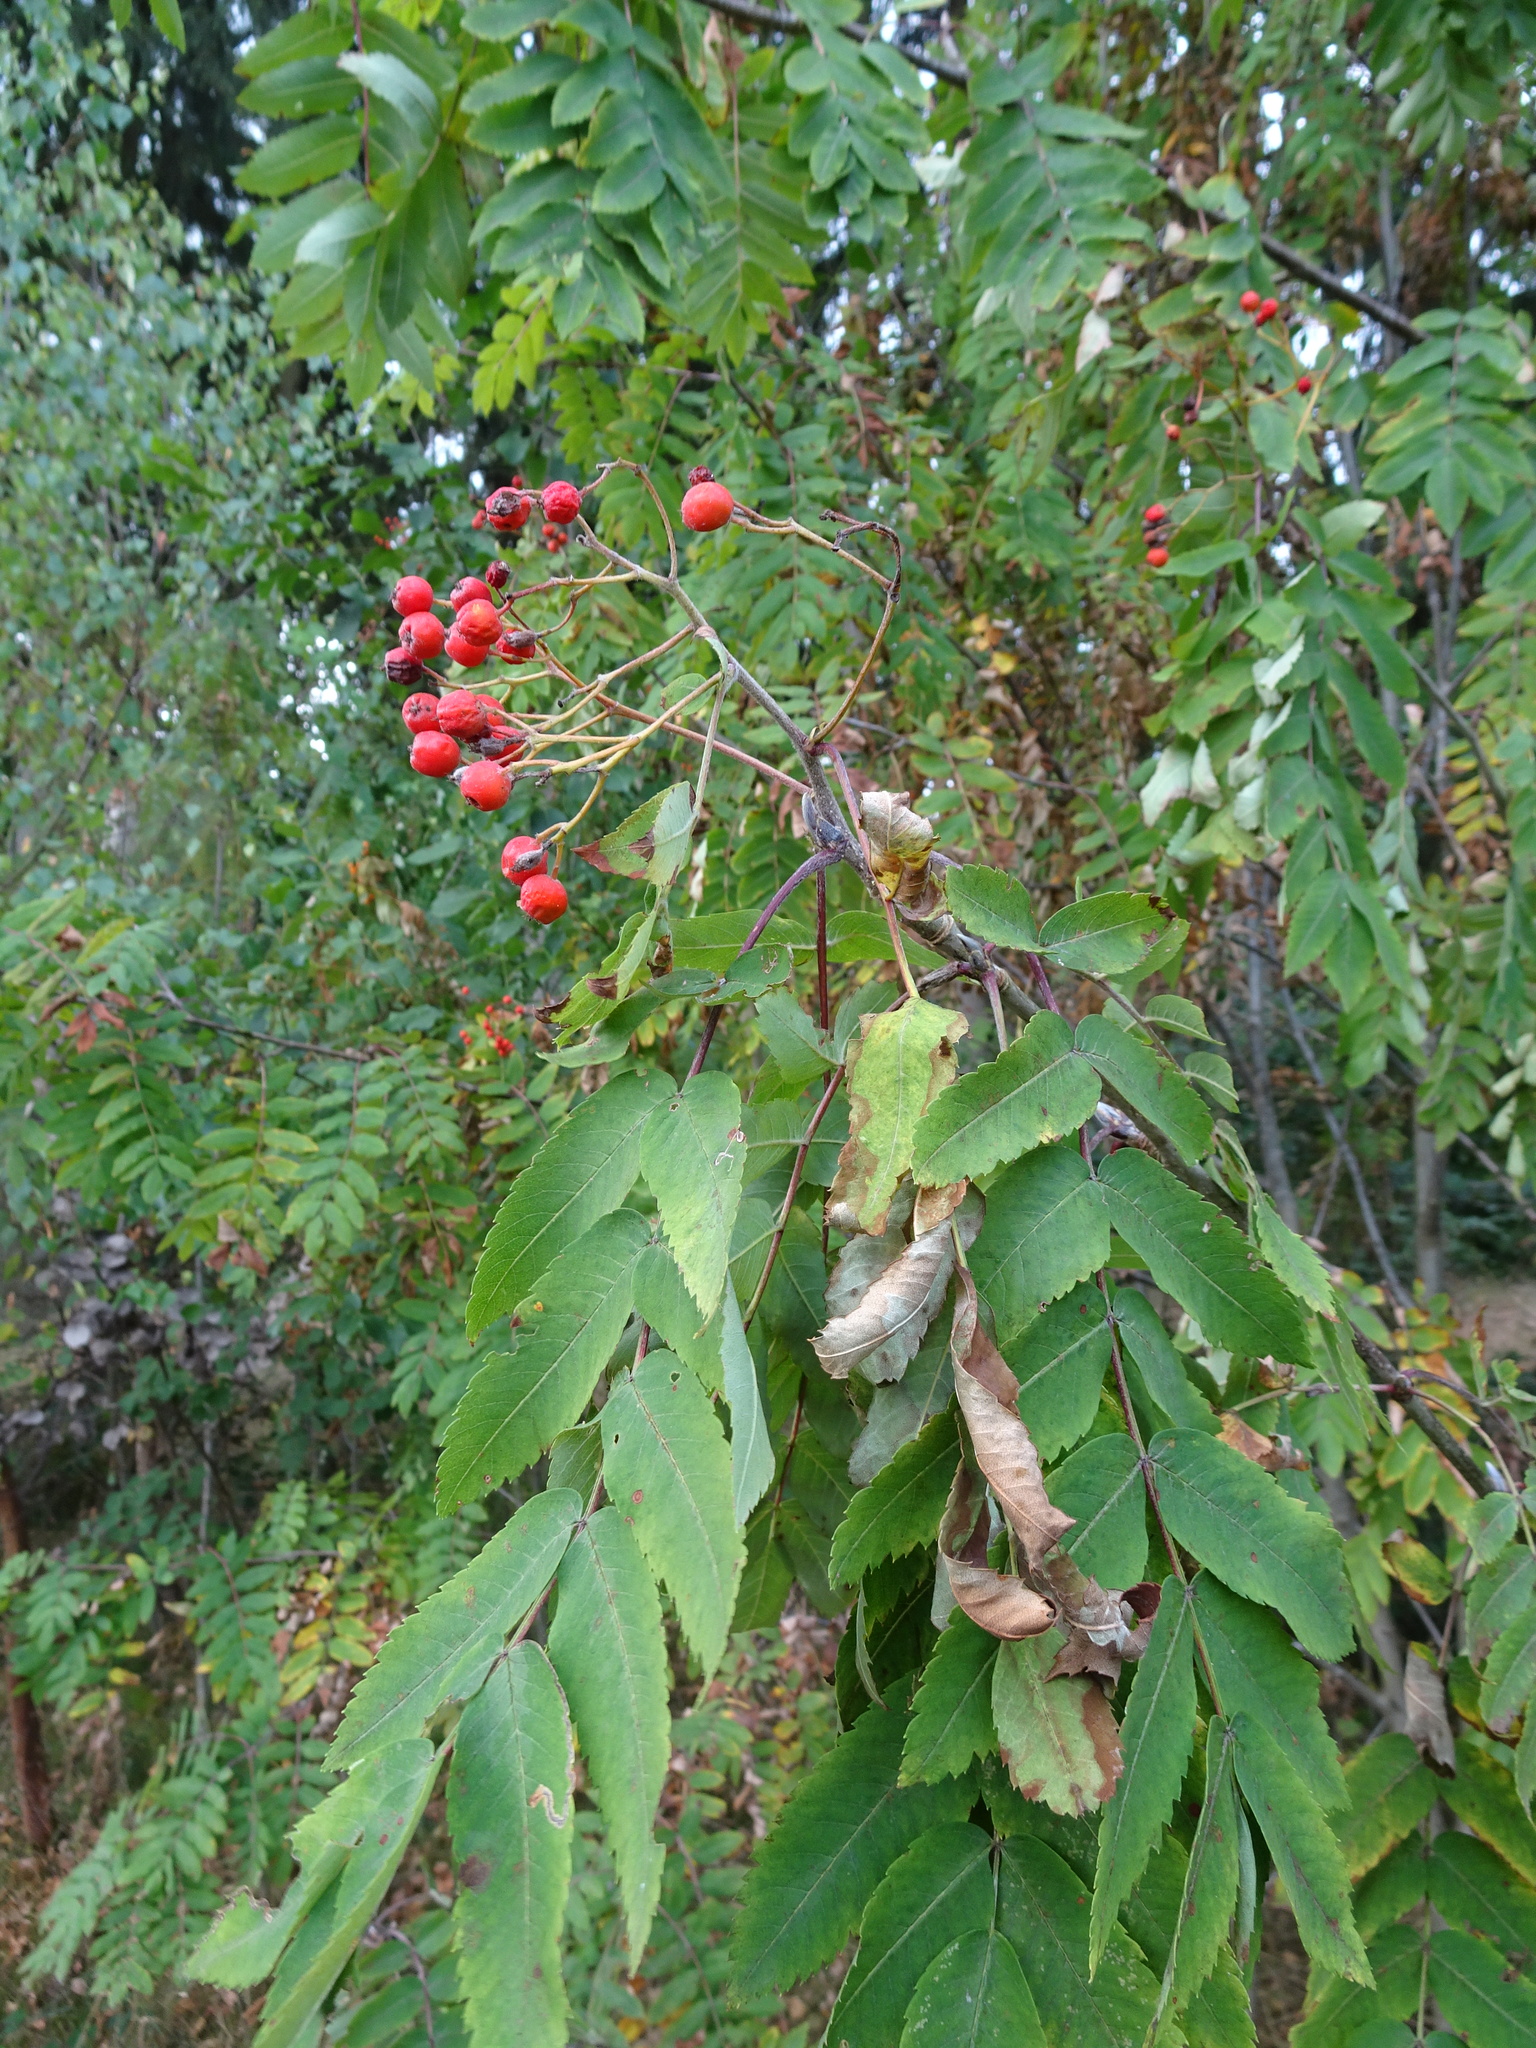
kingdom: Plantae
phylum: Tracheophyta
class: Magnoliopsida
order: Rosales
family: Rosaceae
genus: Sorbus
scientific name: Sorbus aucuparia
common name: Rowan
